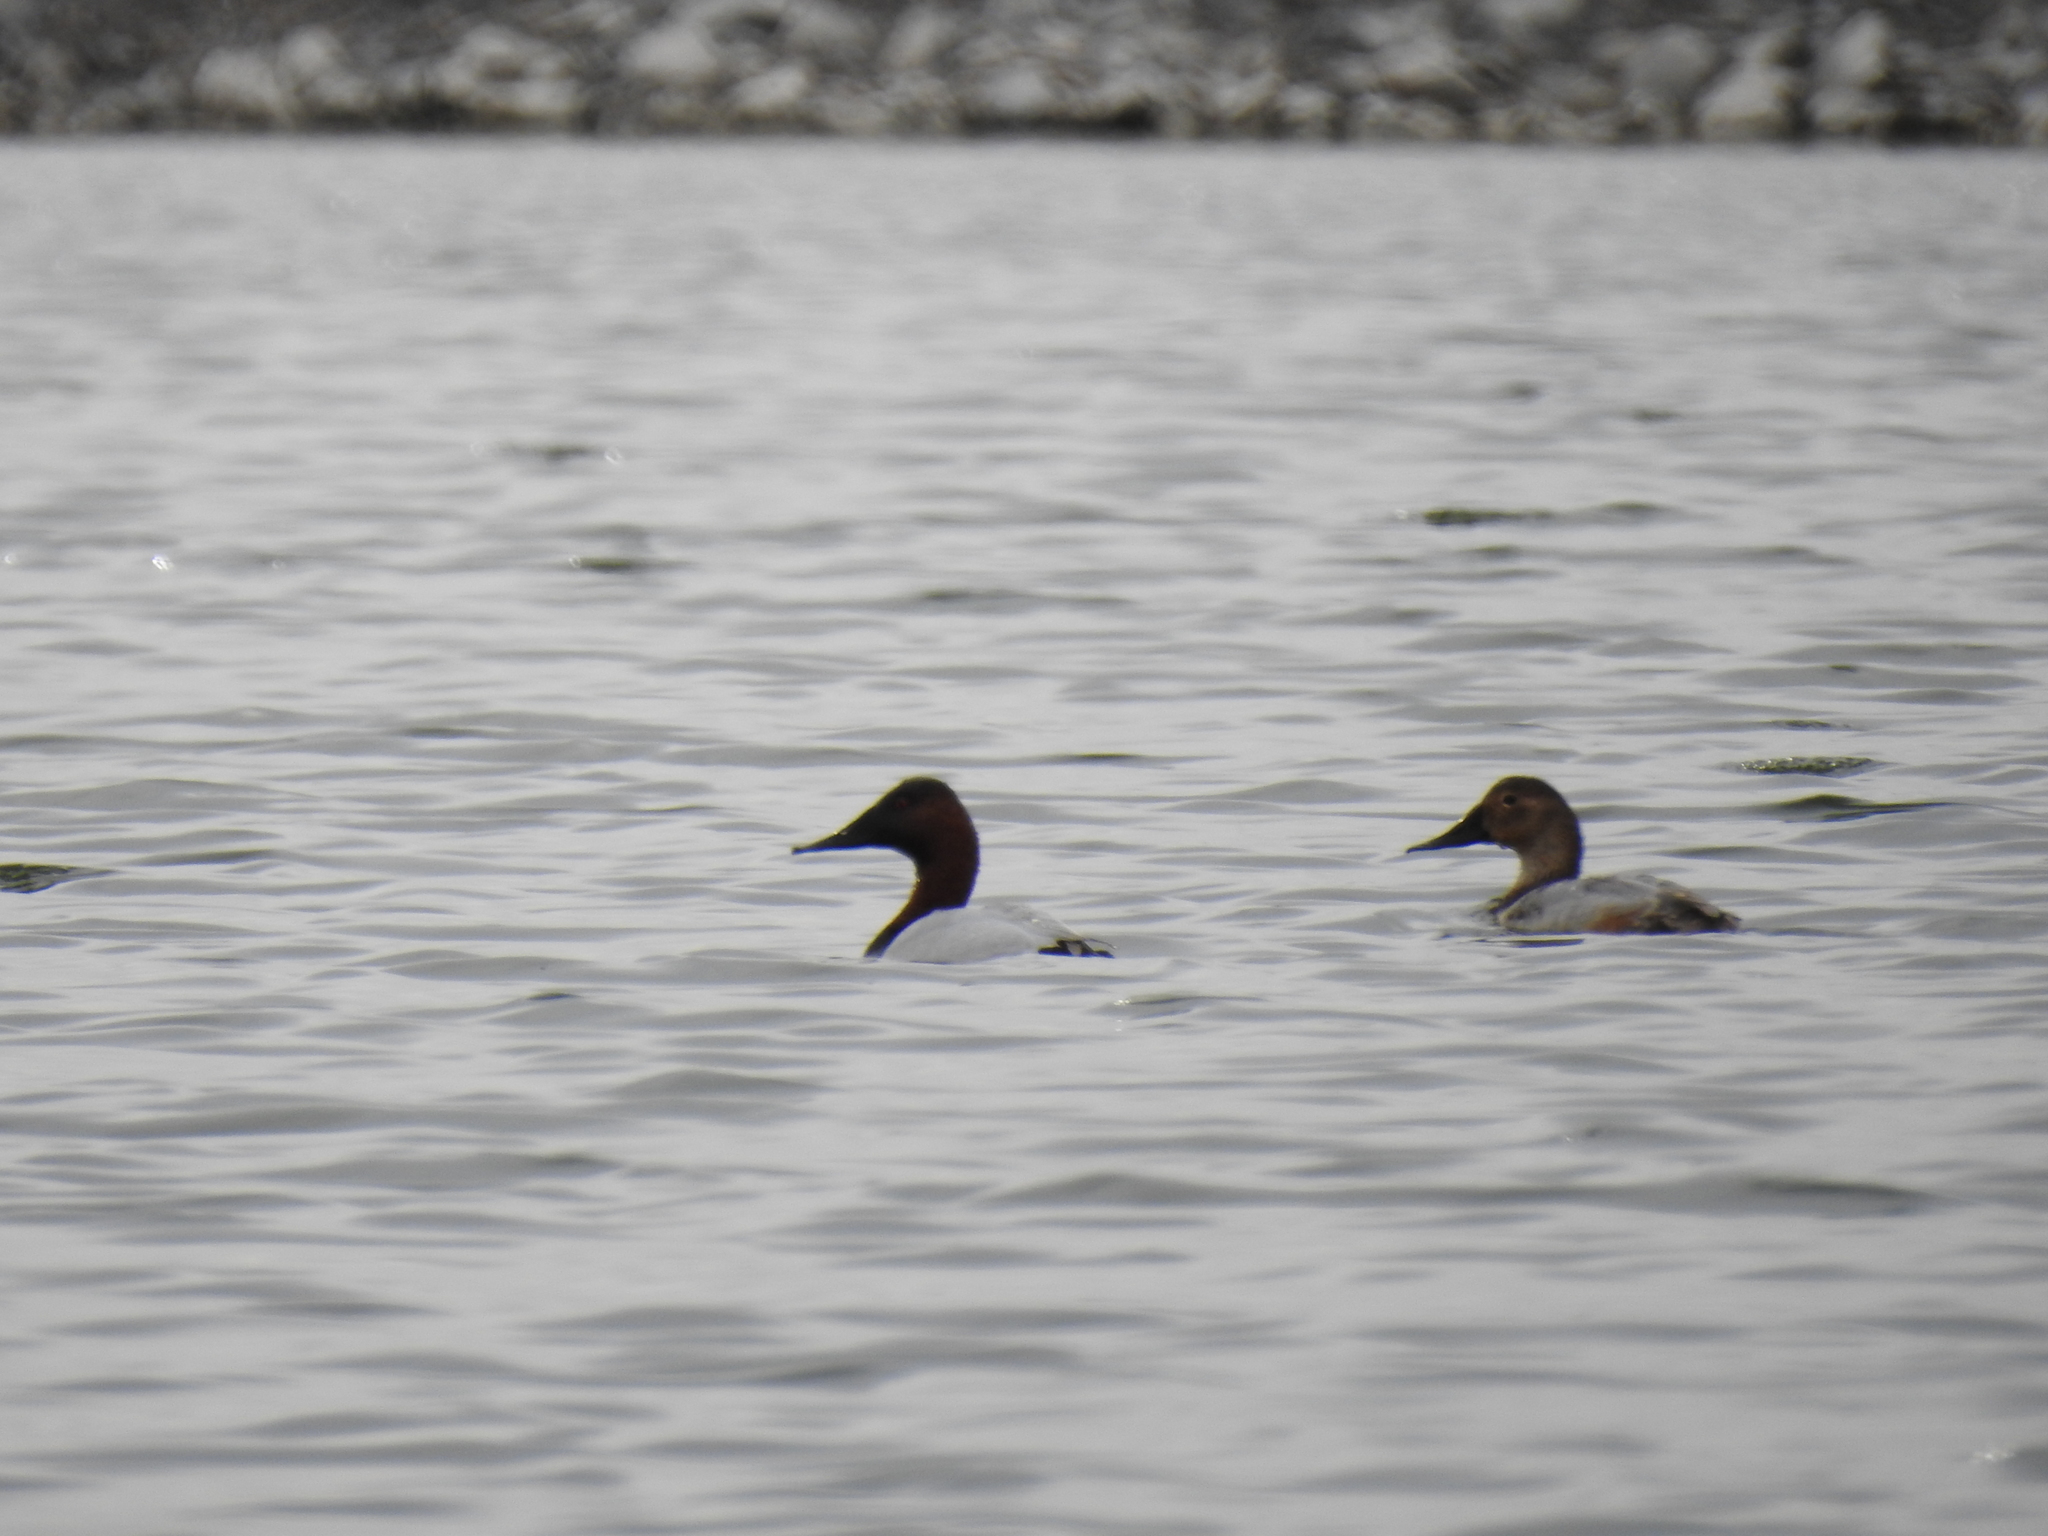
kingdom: Animalia
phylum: Chordata
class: Aves
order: Anseriformes
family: Anatidae
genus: Aythya
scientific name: Aythya valisineria
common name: Canvasback
